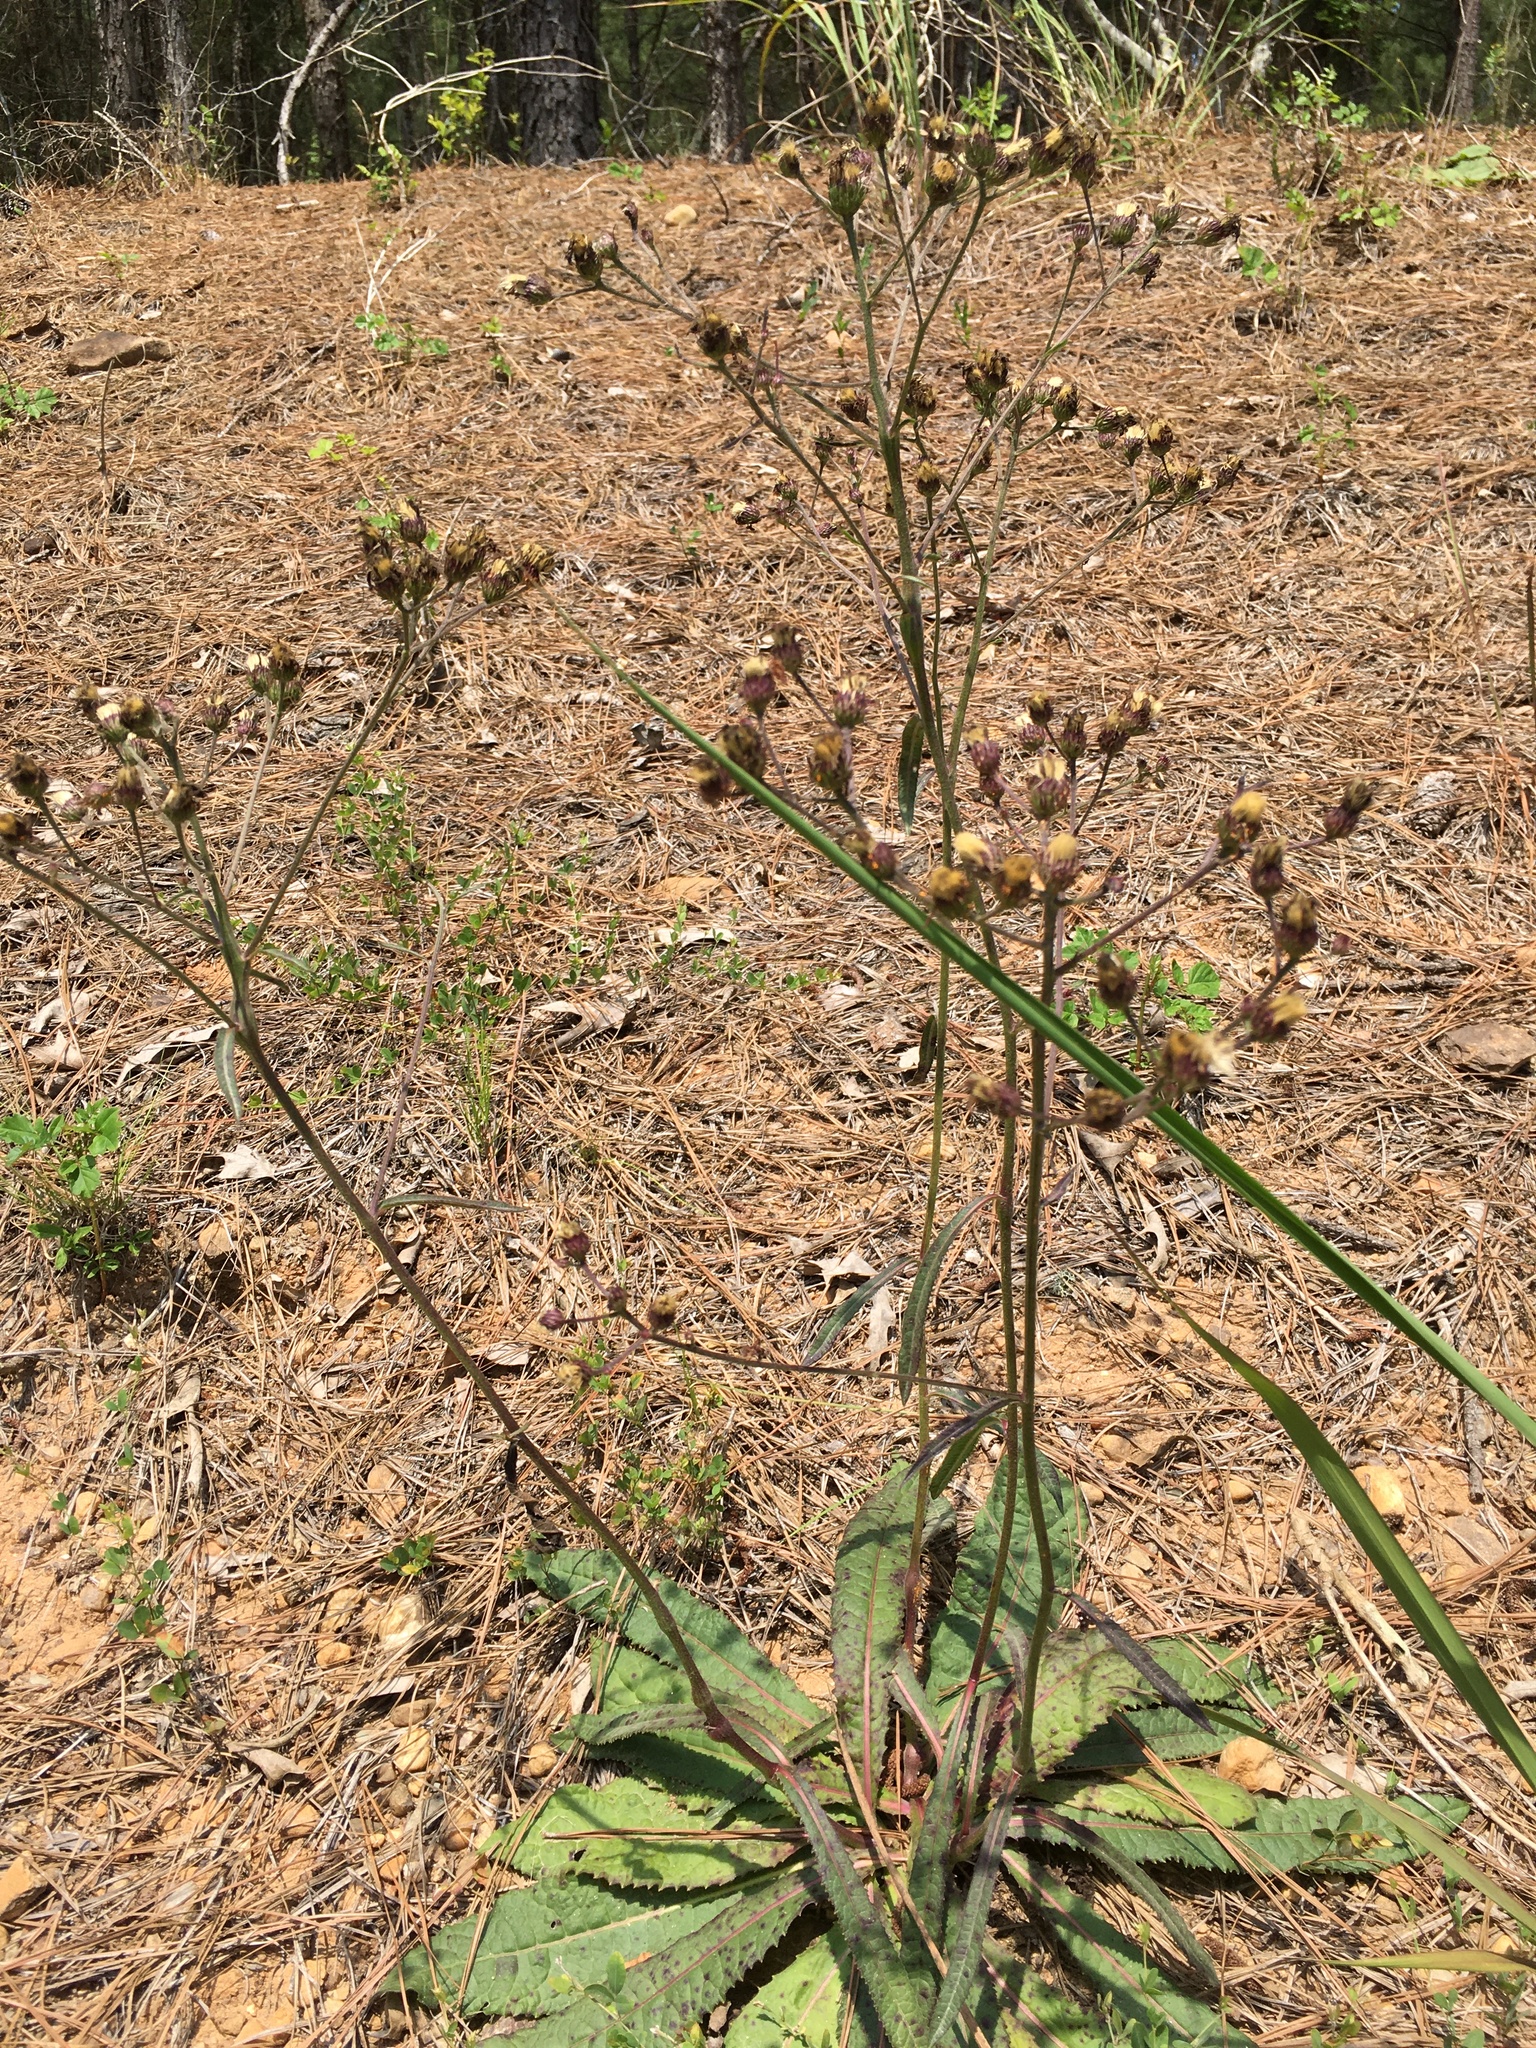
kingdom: Plantae
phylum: Tracheophyta
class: Magnoliopsida
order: Asterales
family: Asteraceae
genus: Vernonia
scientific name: Vernonia acaulis
